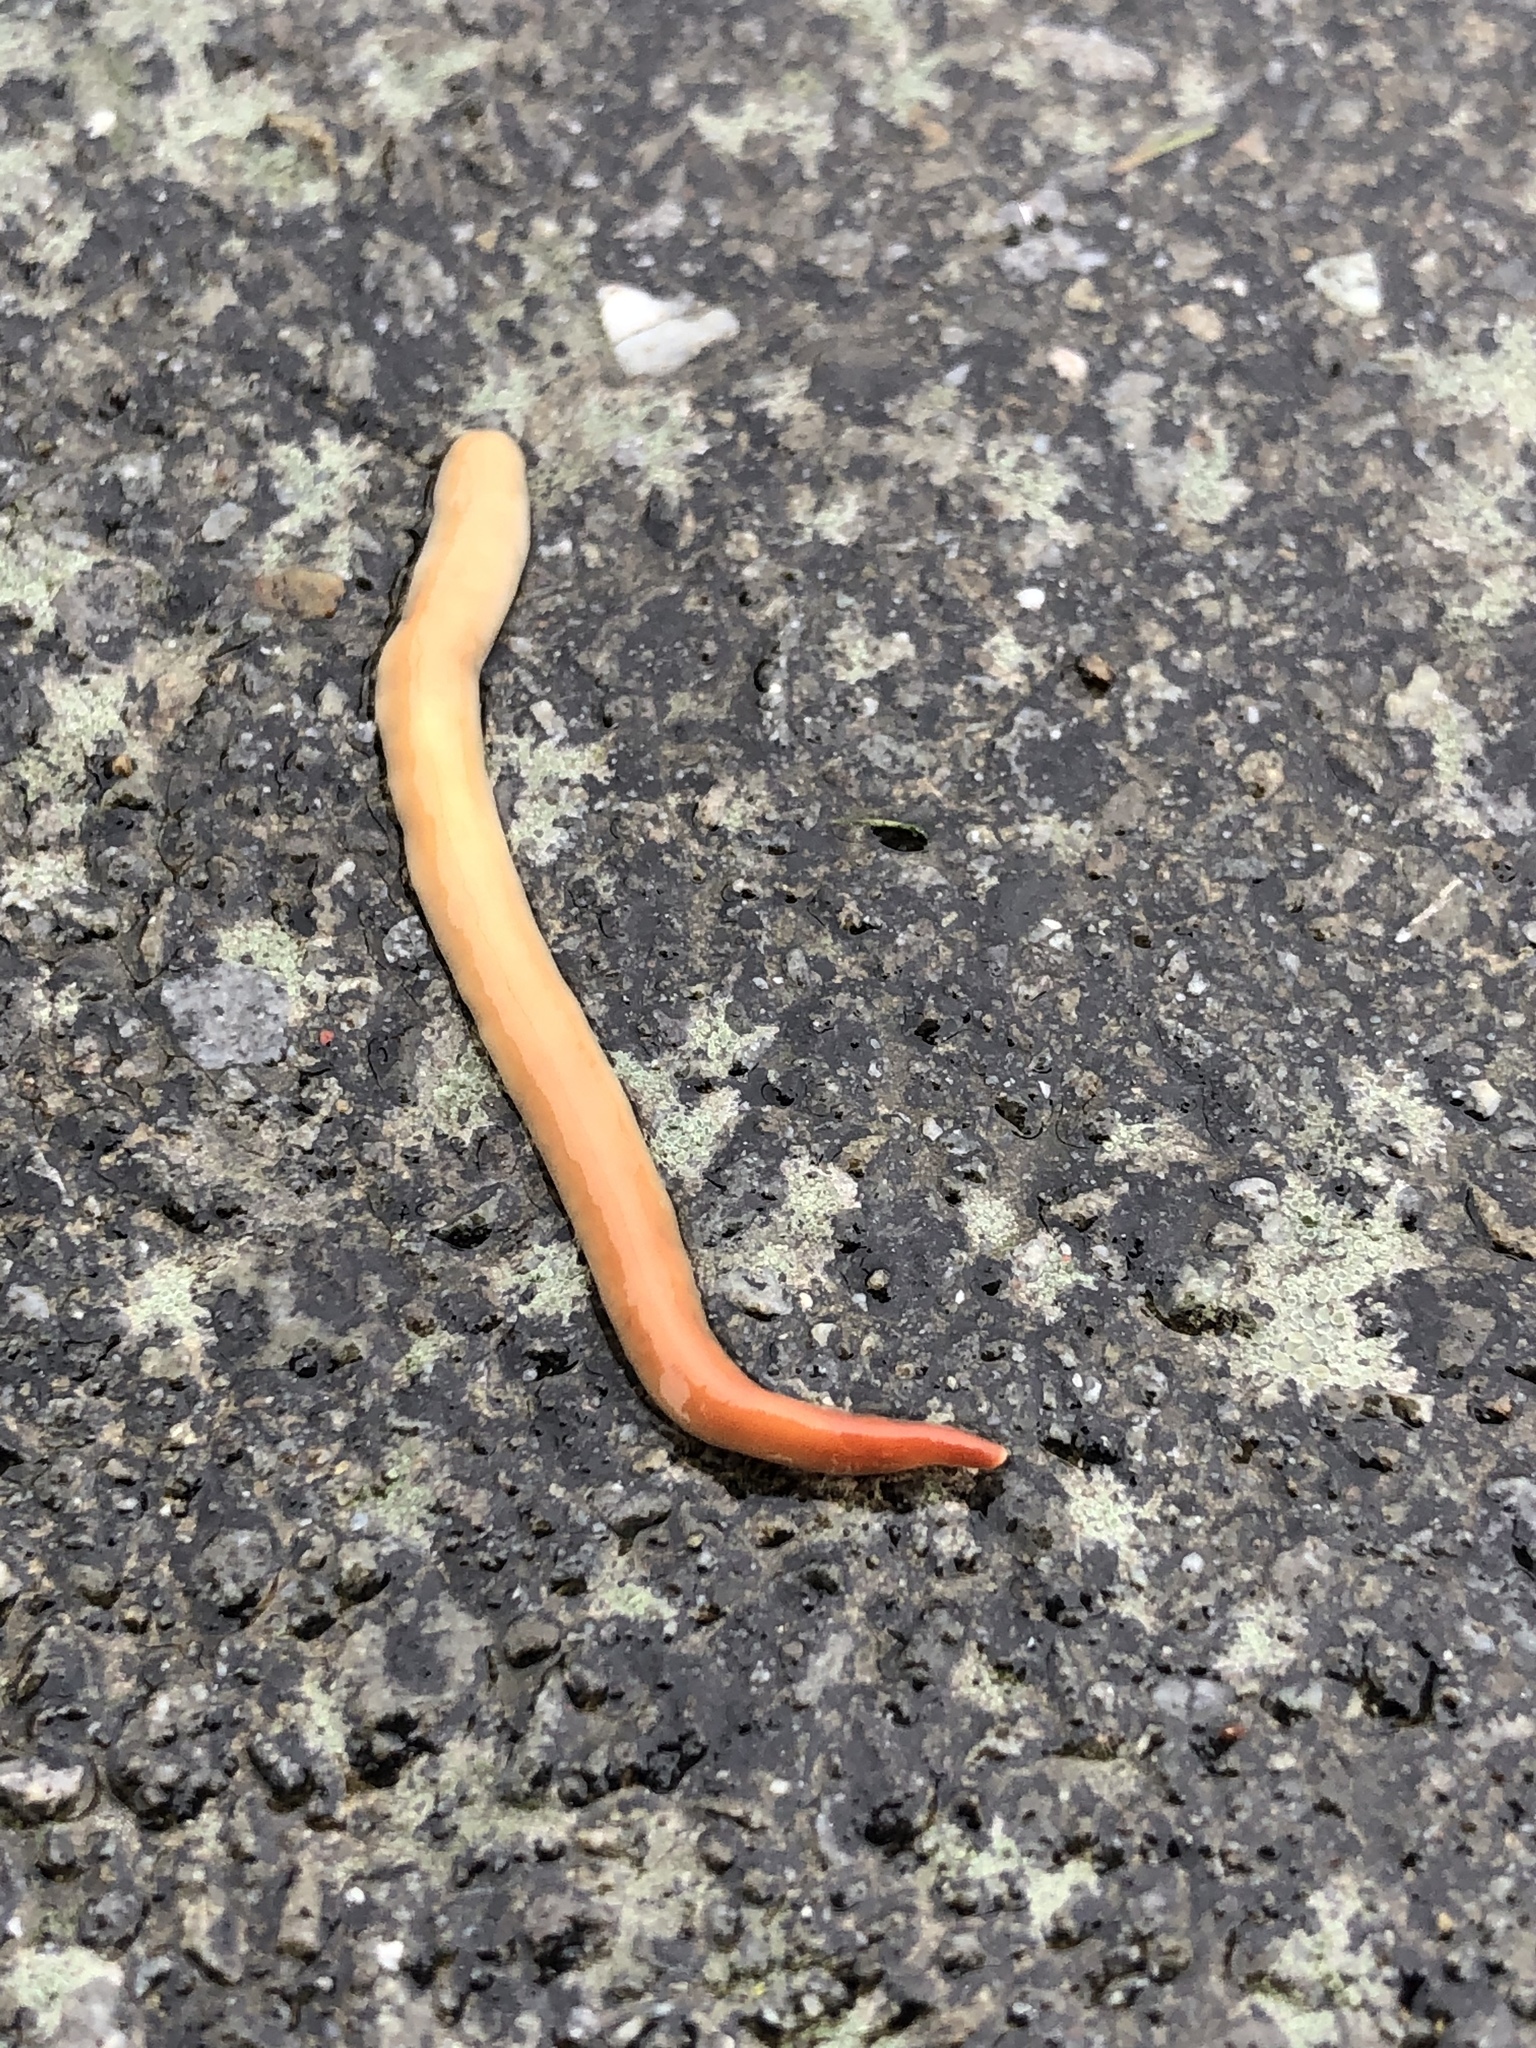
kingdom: Animalia
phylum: Platyhelminthes
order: Tricladida
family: Geoplanidae
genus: Australoplana
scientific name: Australoplana sanguinea
